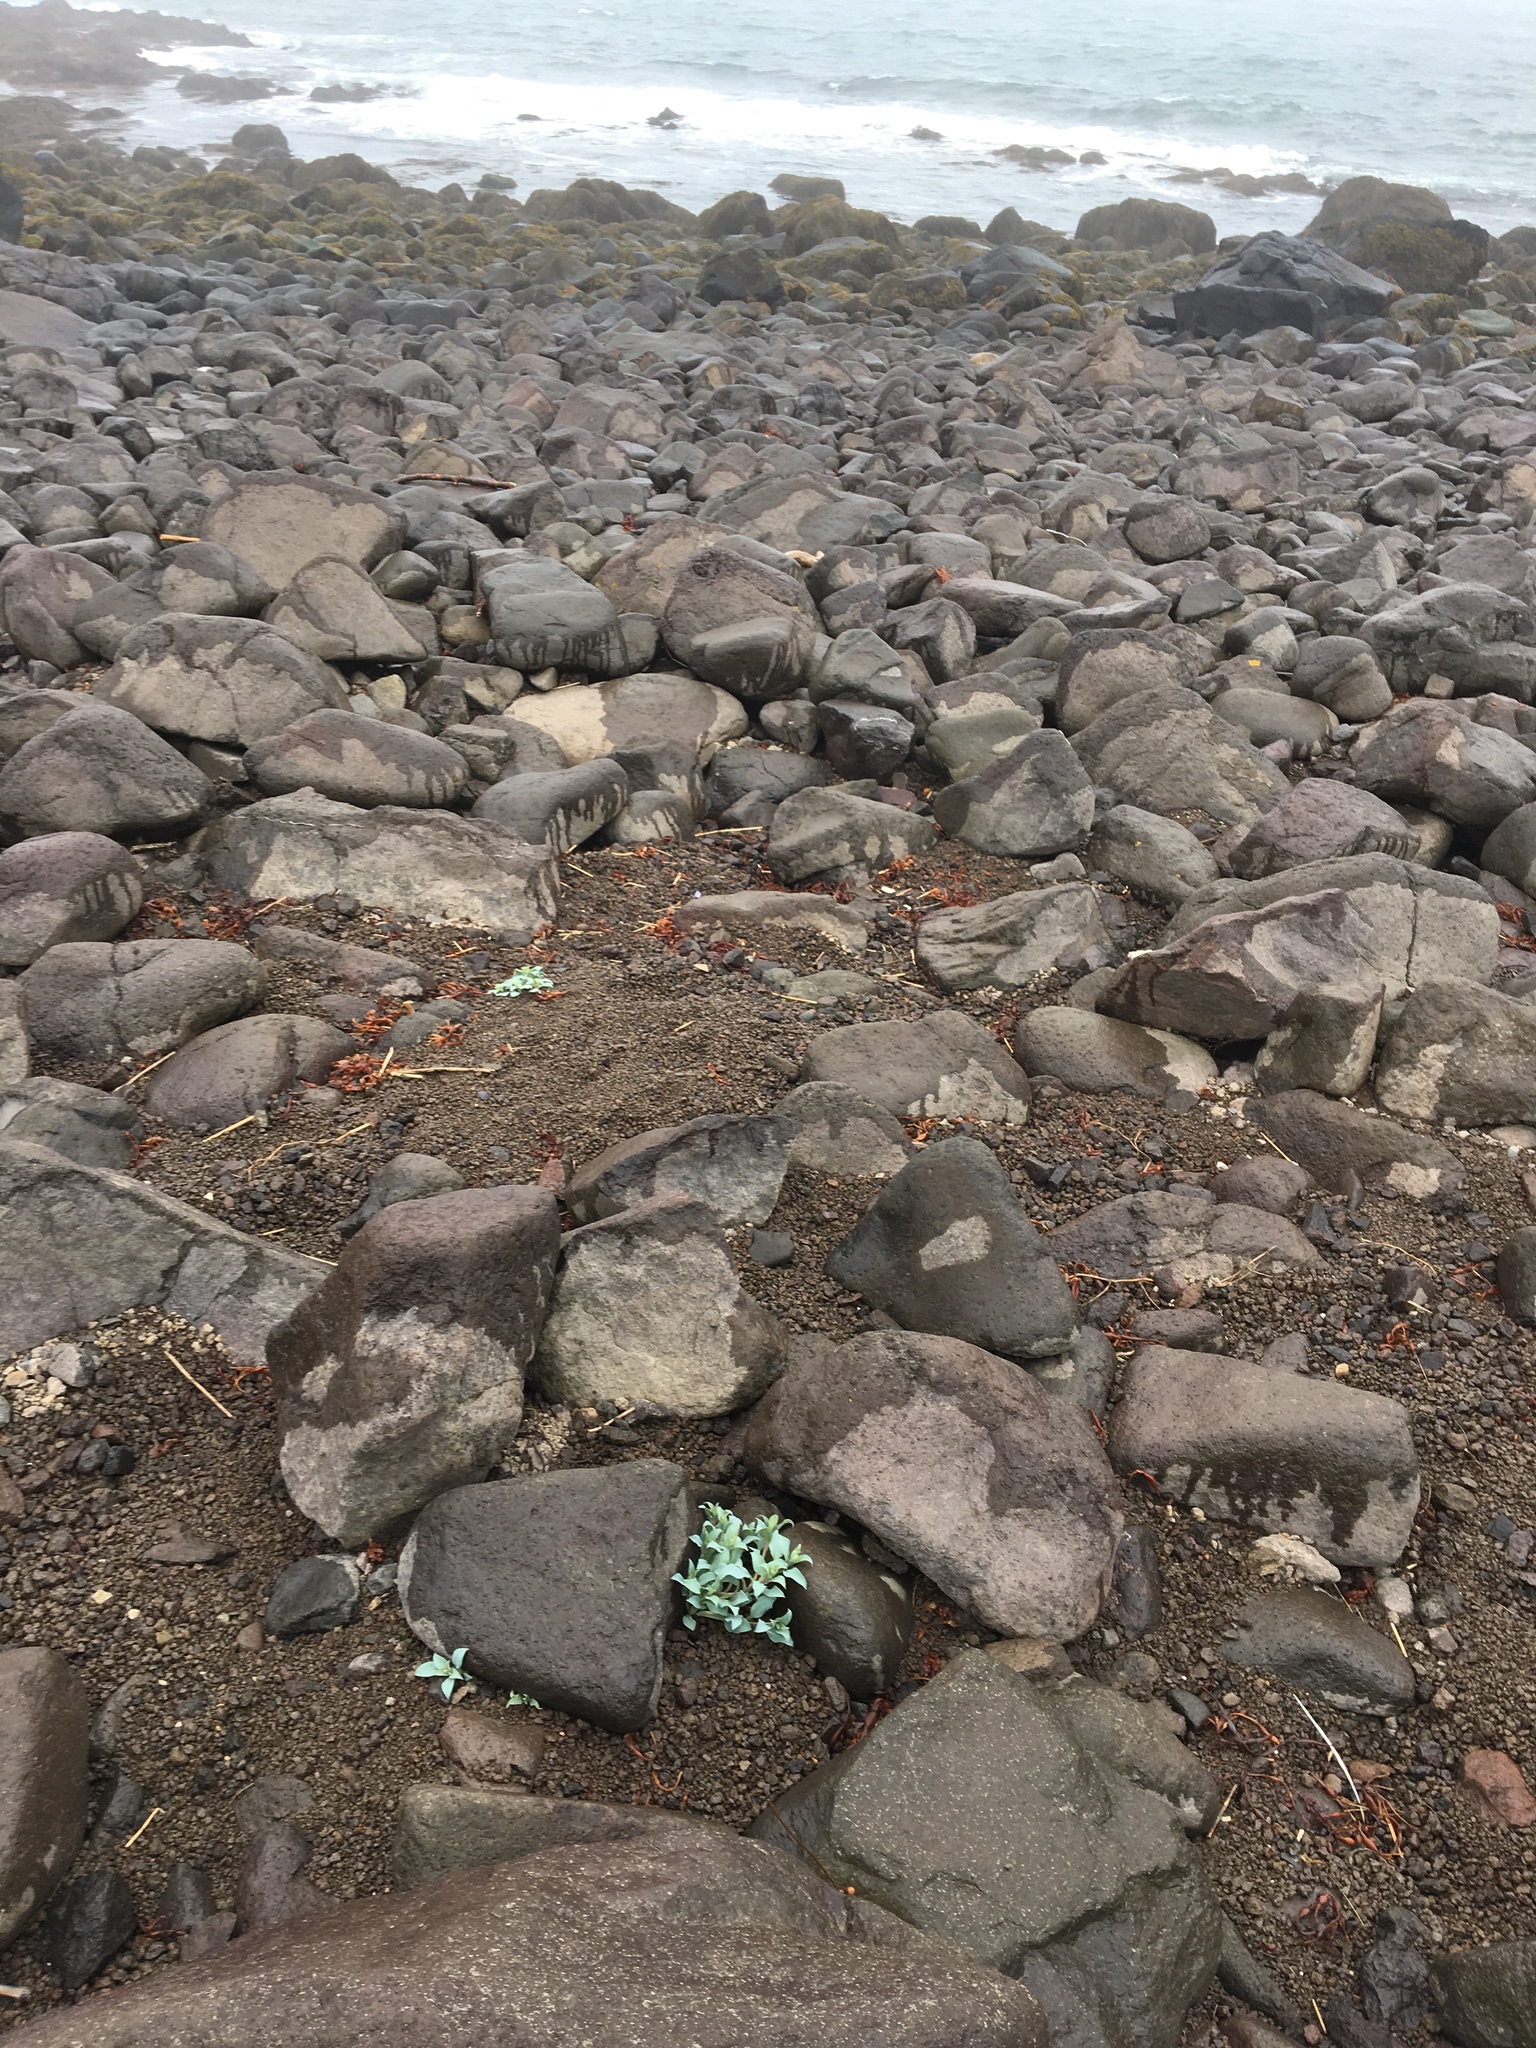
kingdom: Plantae
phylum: Tracheophyta
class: Magnoliopsida
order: Boraginales
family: Boraginaceae
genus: Mertensia
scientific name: Mertensia maritima
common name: Oysterplant
